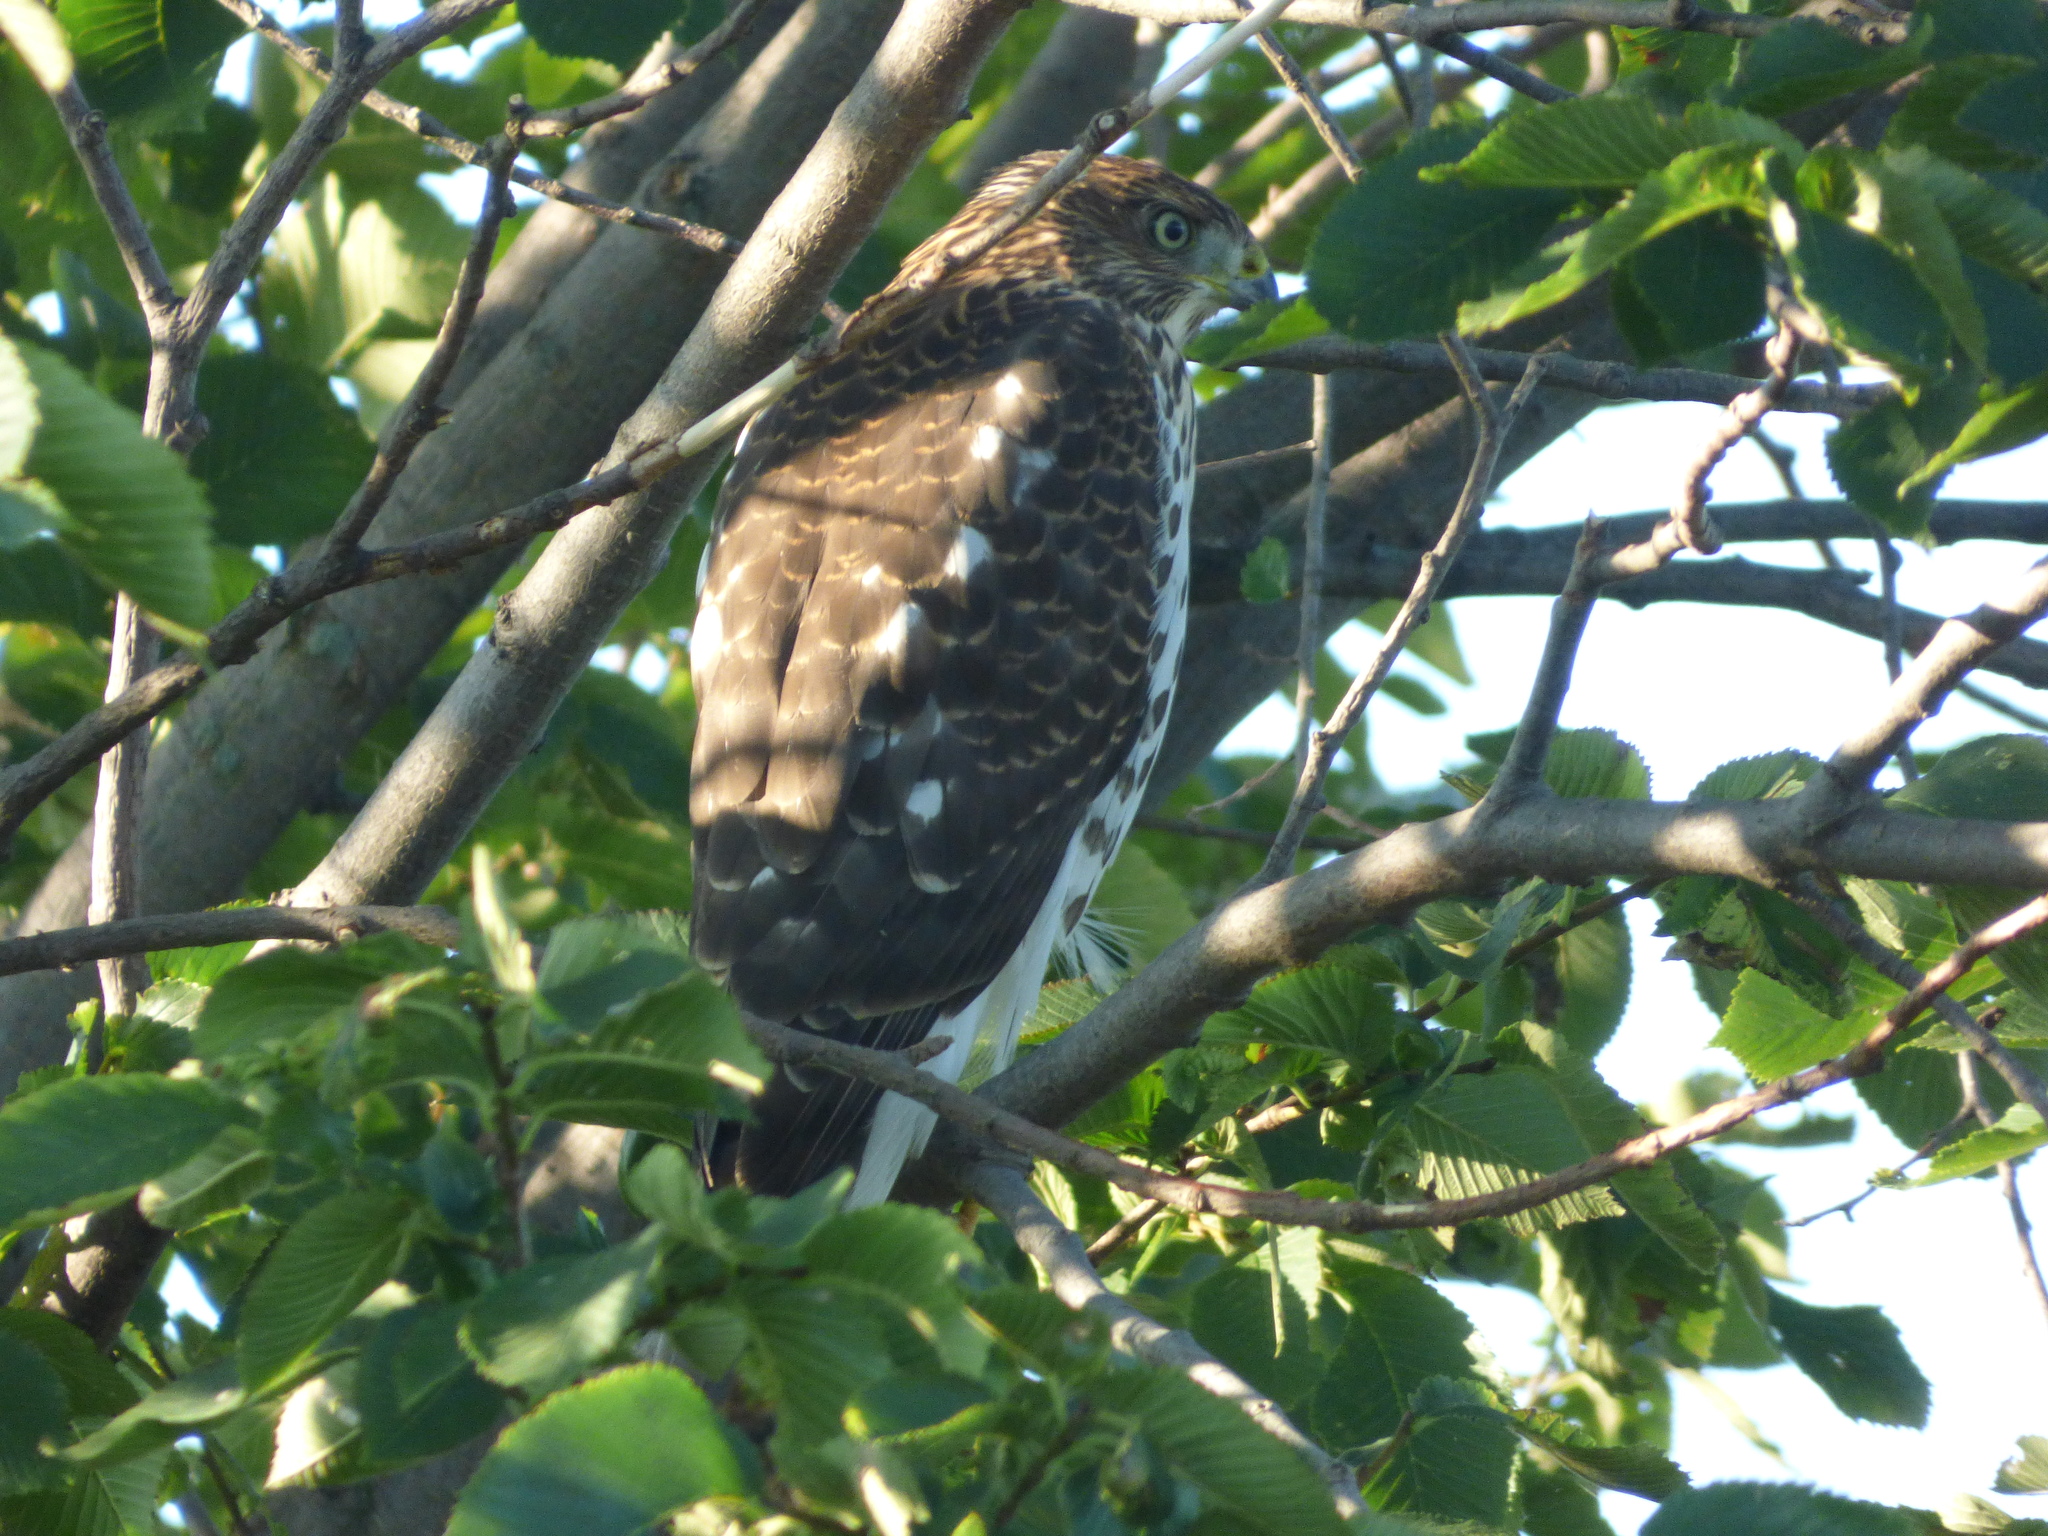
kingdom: Animalia
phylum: Chordata
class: Aves
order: Accipitriformes
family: Accipitridae
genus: Accipiter
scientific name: Accipiter cooperii
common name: Cooper's hawk
